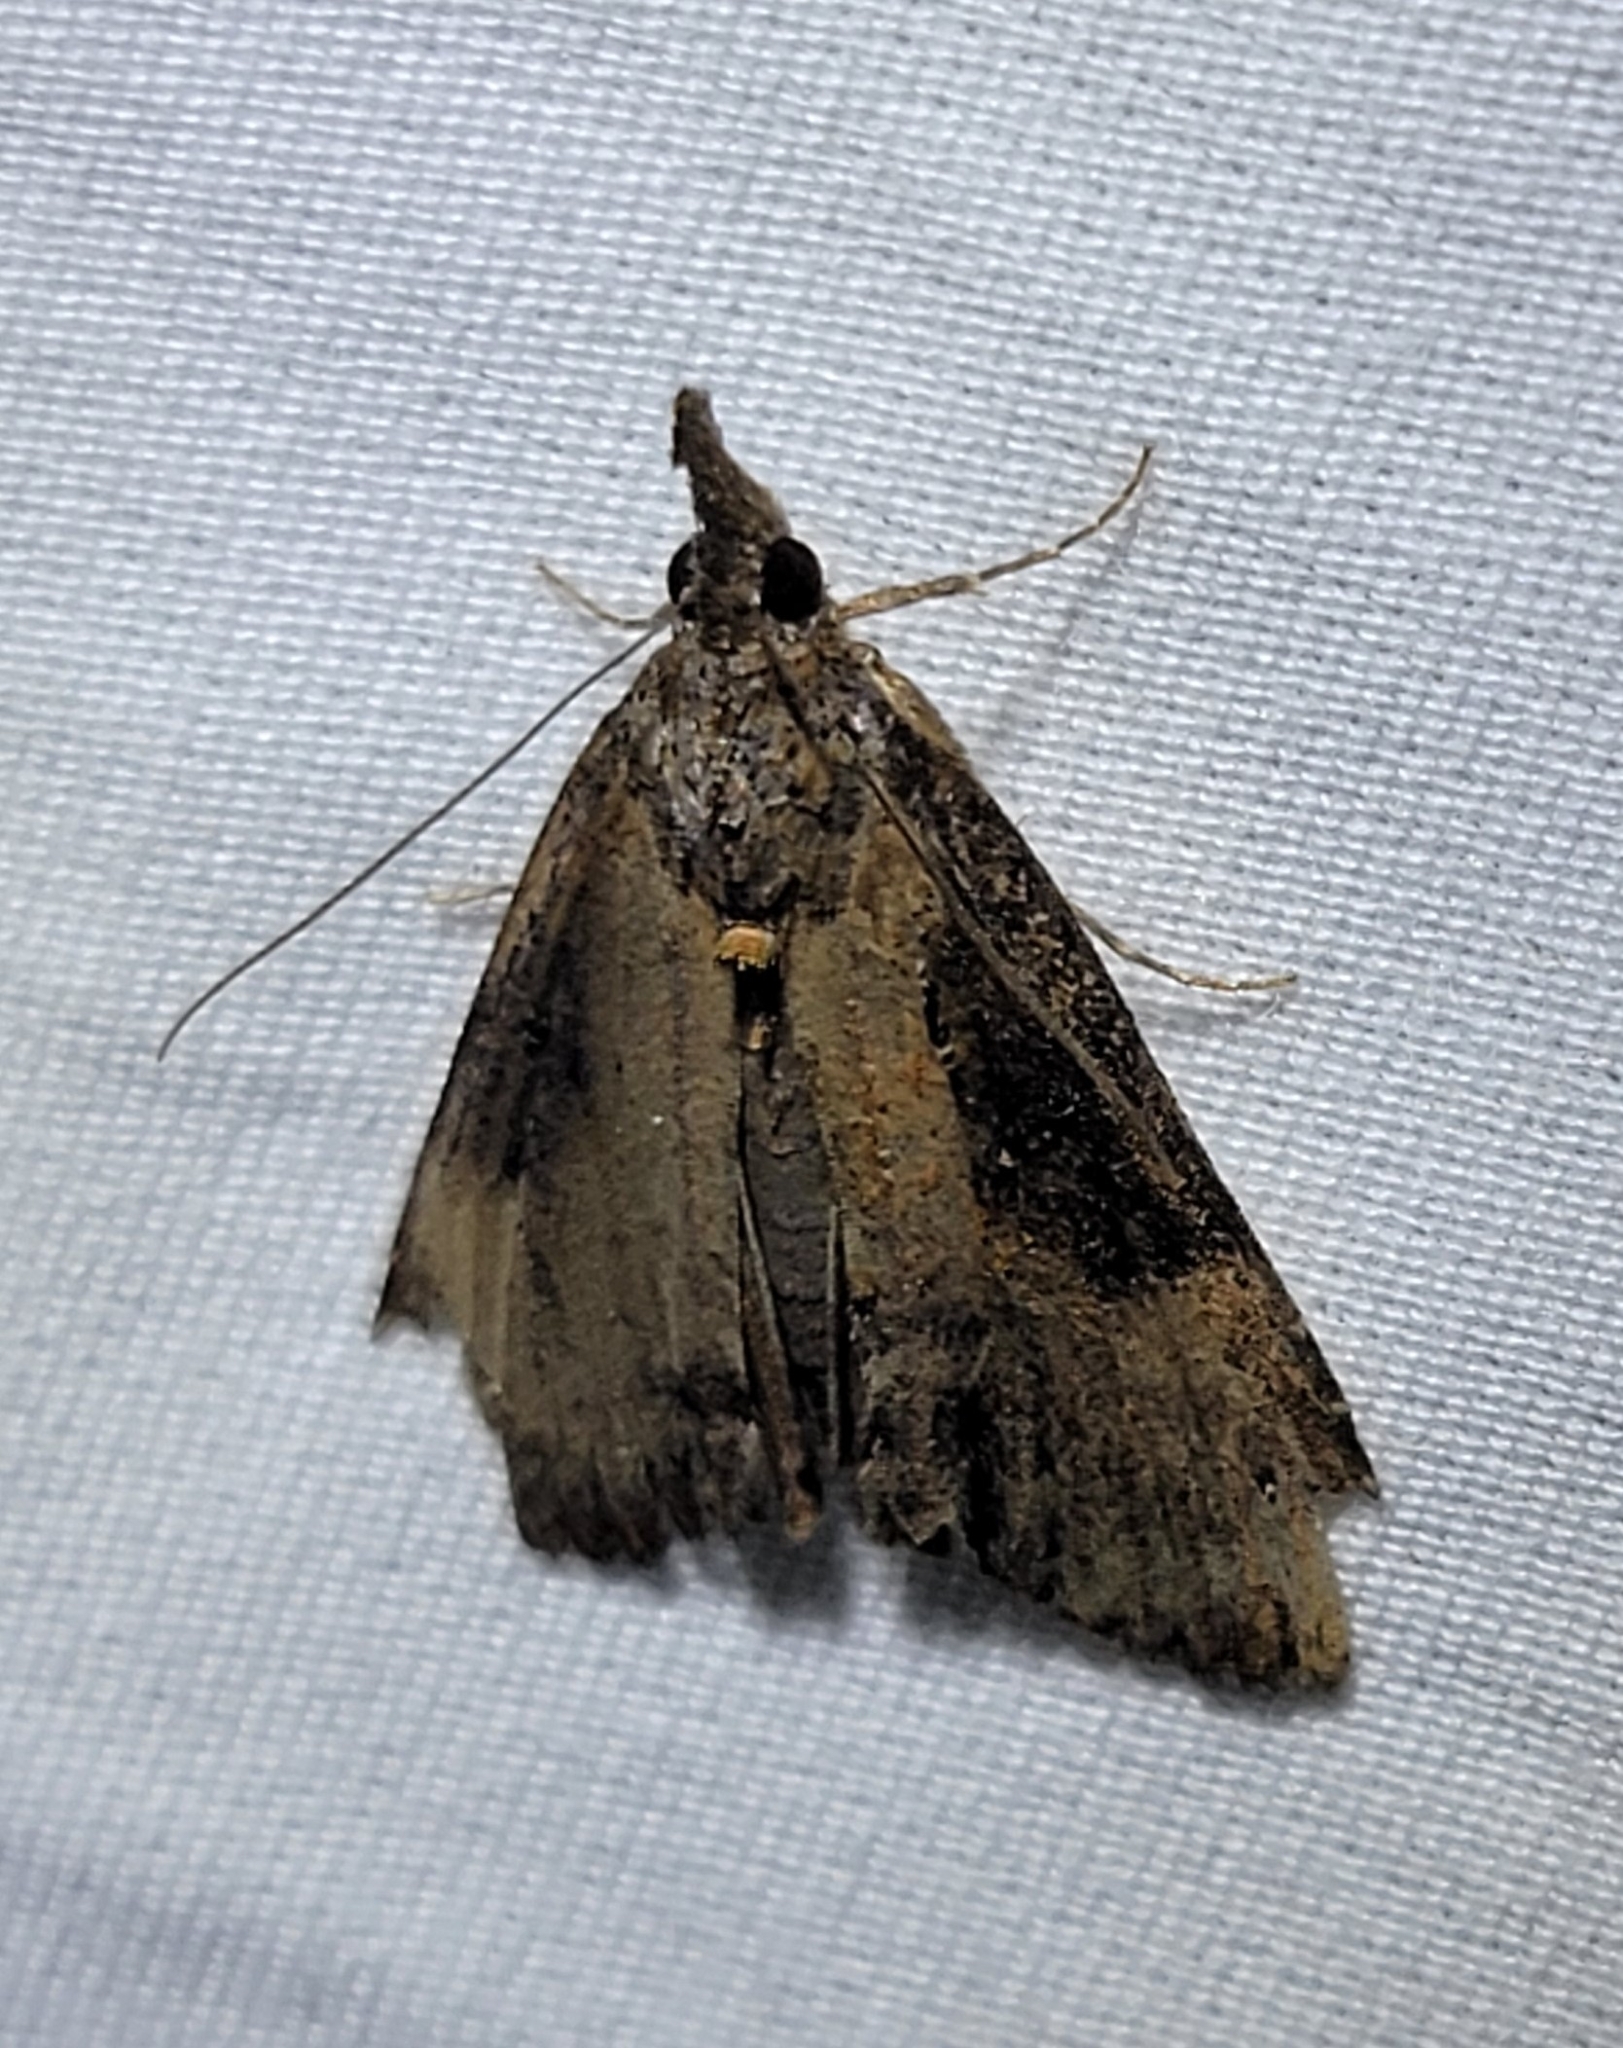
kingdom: Animalia
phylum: Arthropoda
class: Insecta
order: Lepidoptera
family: Erebidae
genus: Hypena
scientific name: Hypena scabra
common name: Green cloverworm
